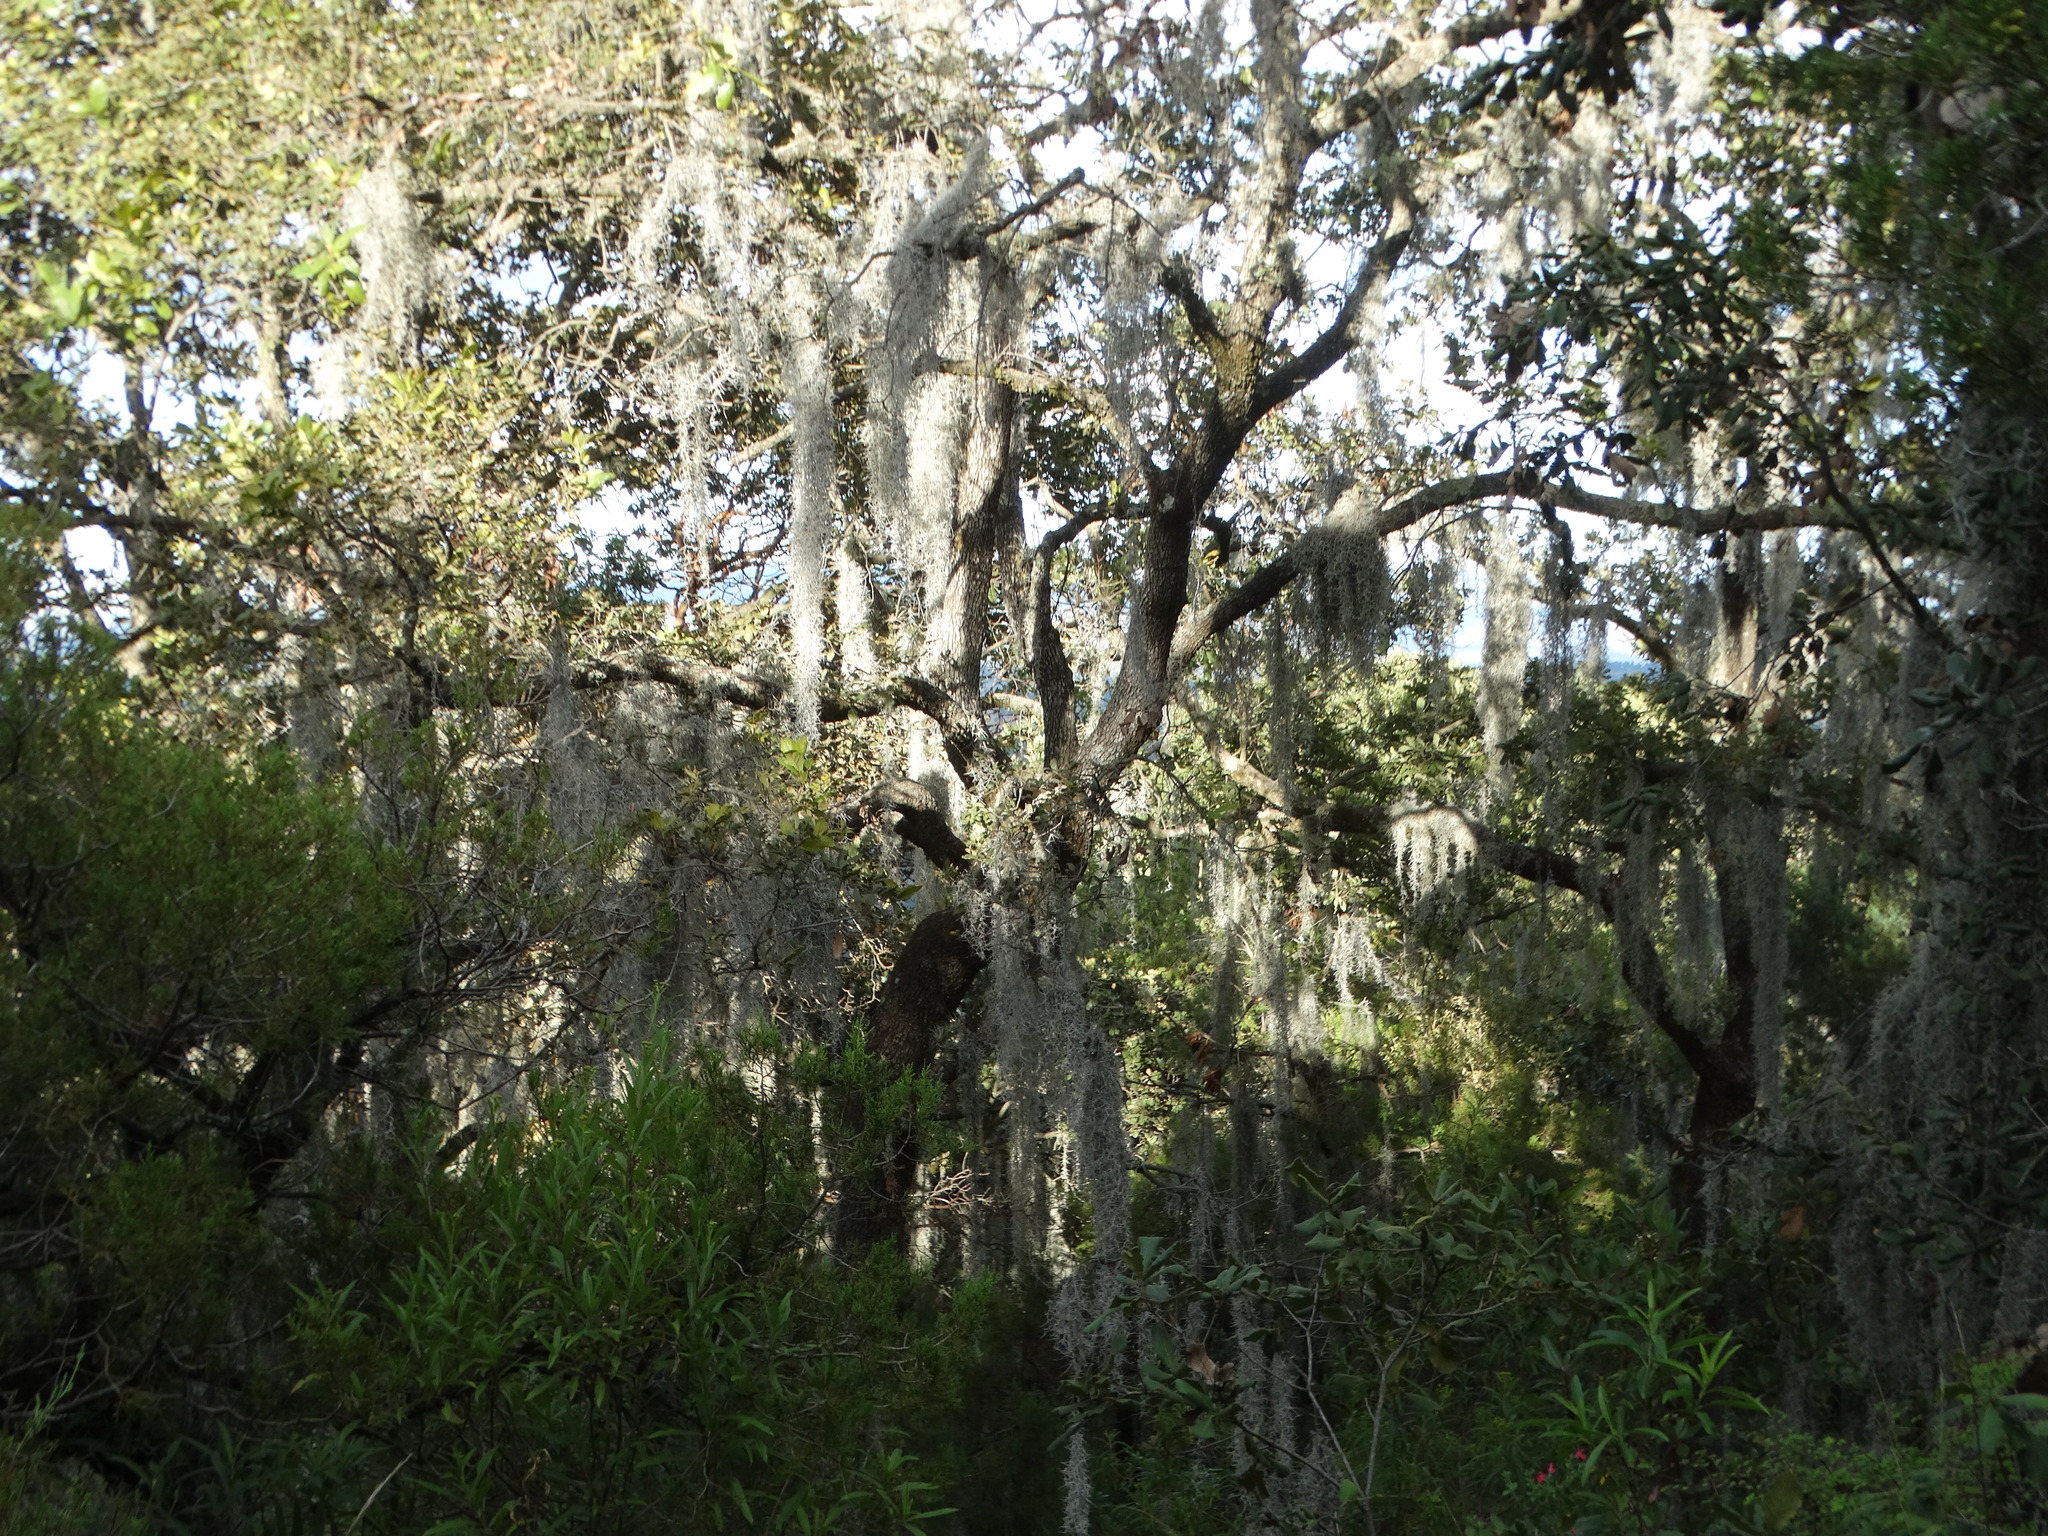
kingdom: Plantae
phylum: Tracheophyta
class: Liliopsida
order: Poales
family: Bromeliaceae
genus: Tillandsia
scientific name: Tillandsia usneoides
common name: Spanish moss
